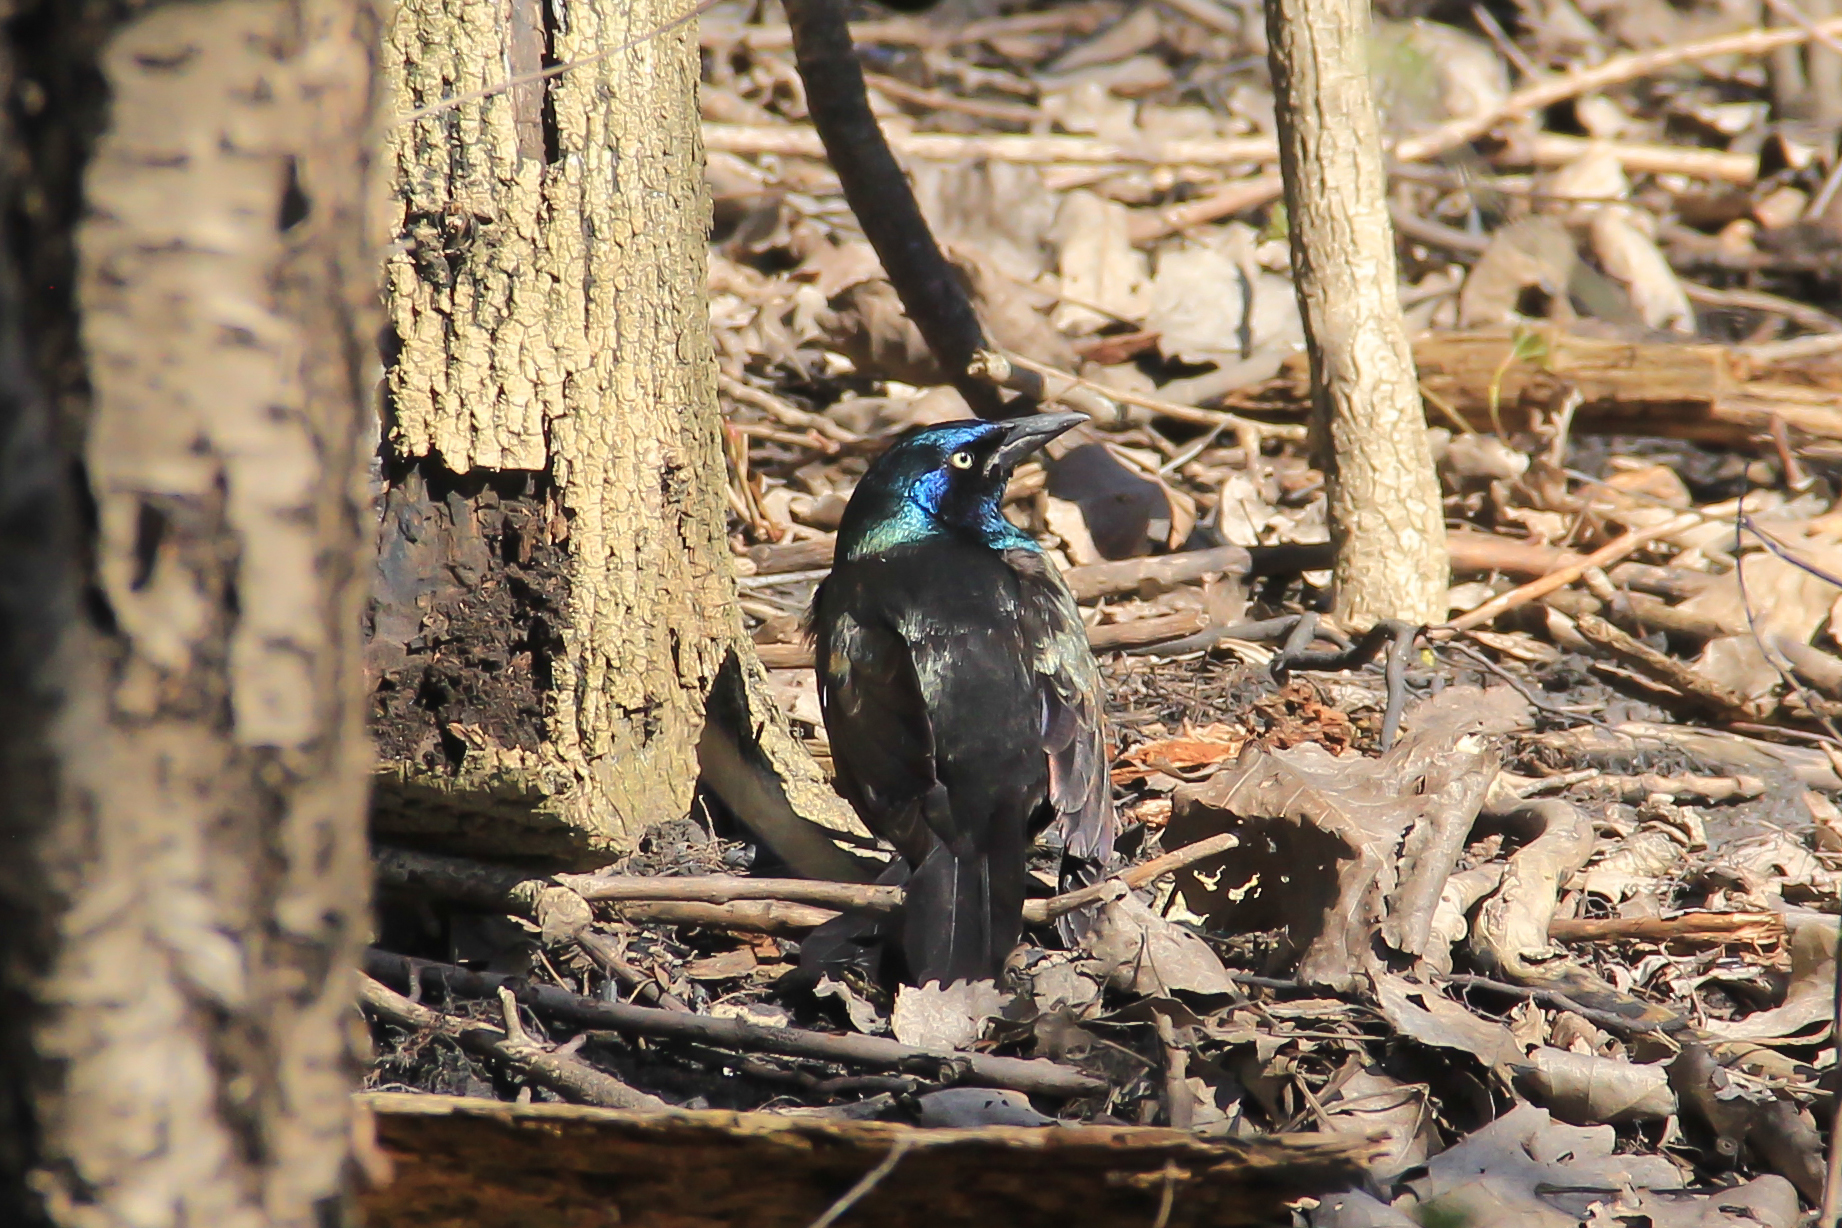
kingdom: Animalia
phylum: Chordata
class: Aves
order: Passeriformes
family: Icteridae
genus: Quiscalus
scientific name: Quiscalus quiscula
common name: Common grackle
